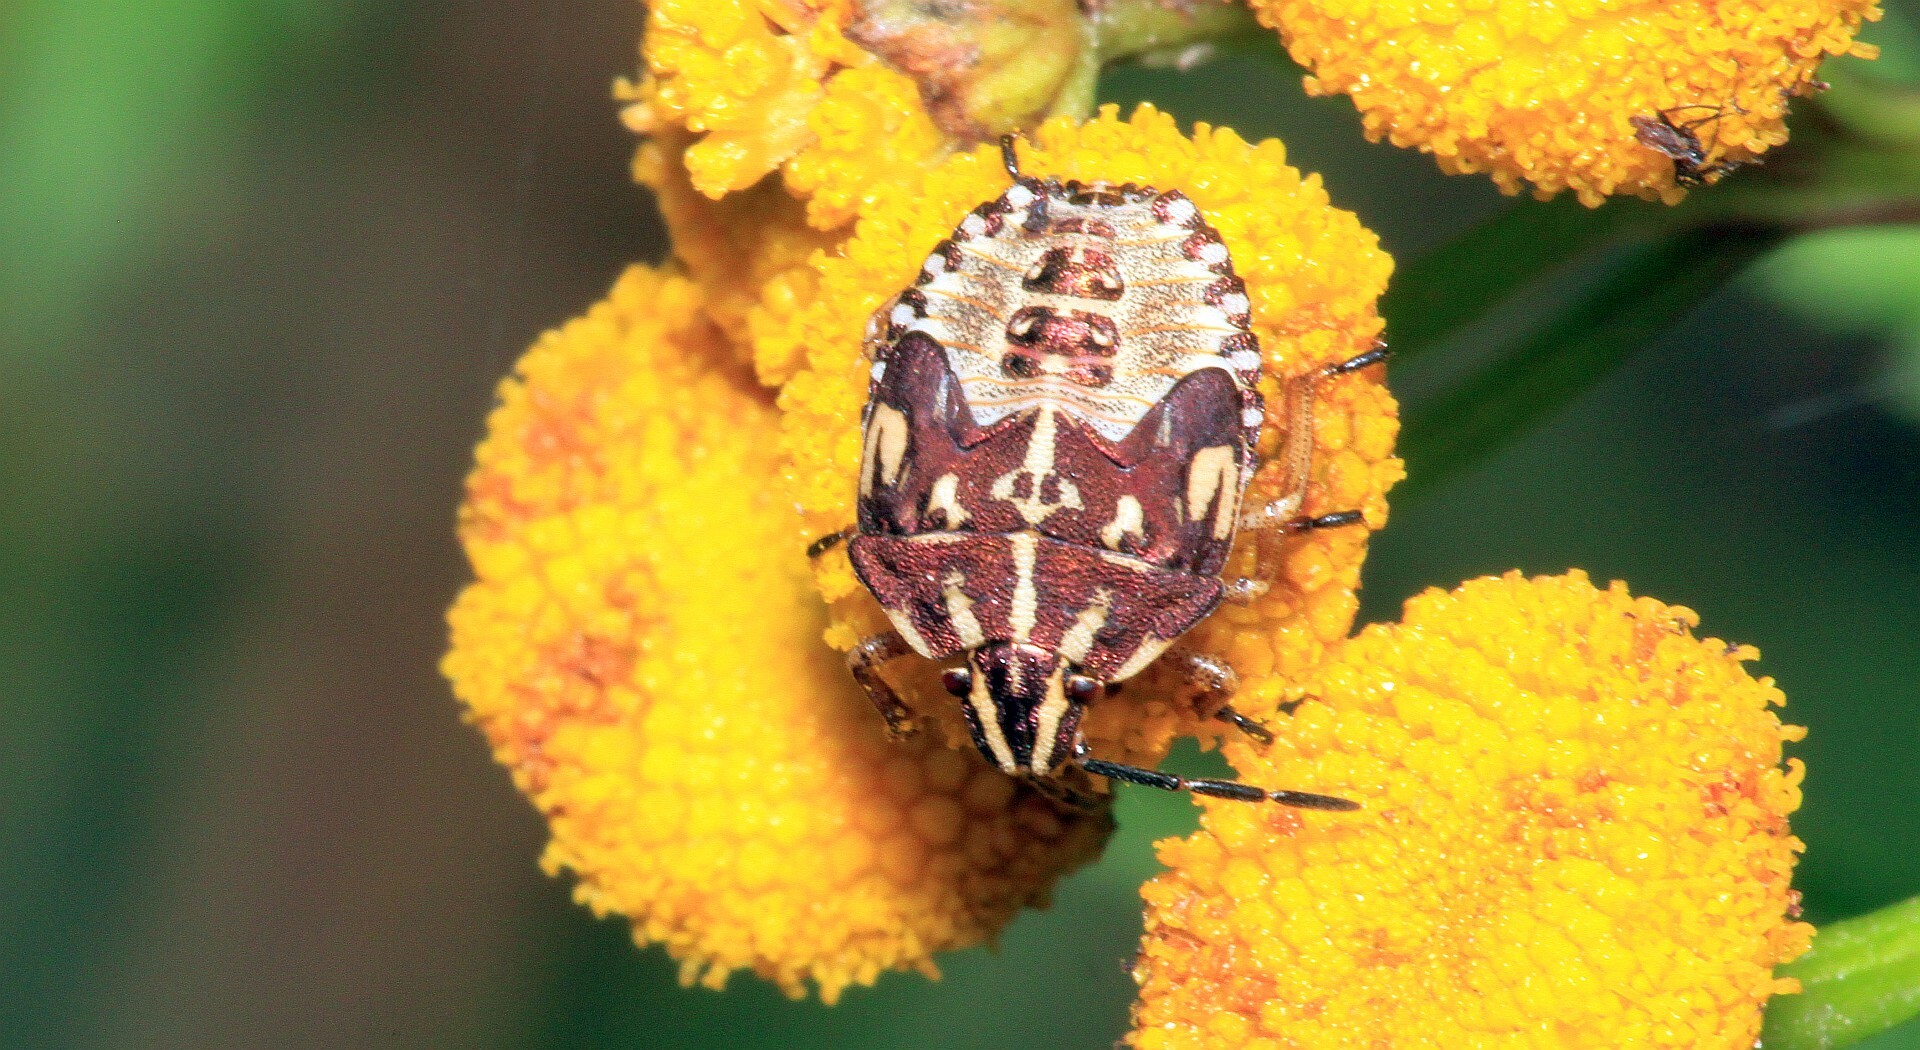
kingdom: Animalia
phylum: Arthropoda
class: Insecta
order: Hemiptera
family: Pentatomidae
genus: Carpocoris
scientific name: Carpocoris purpureipennis
